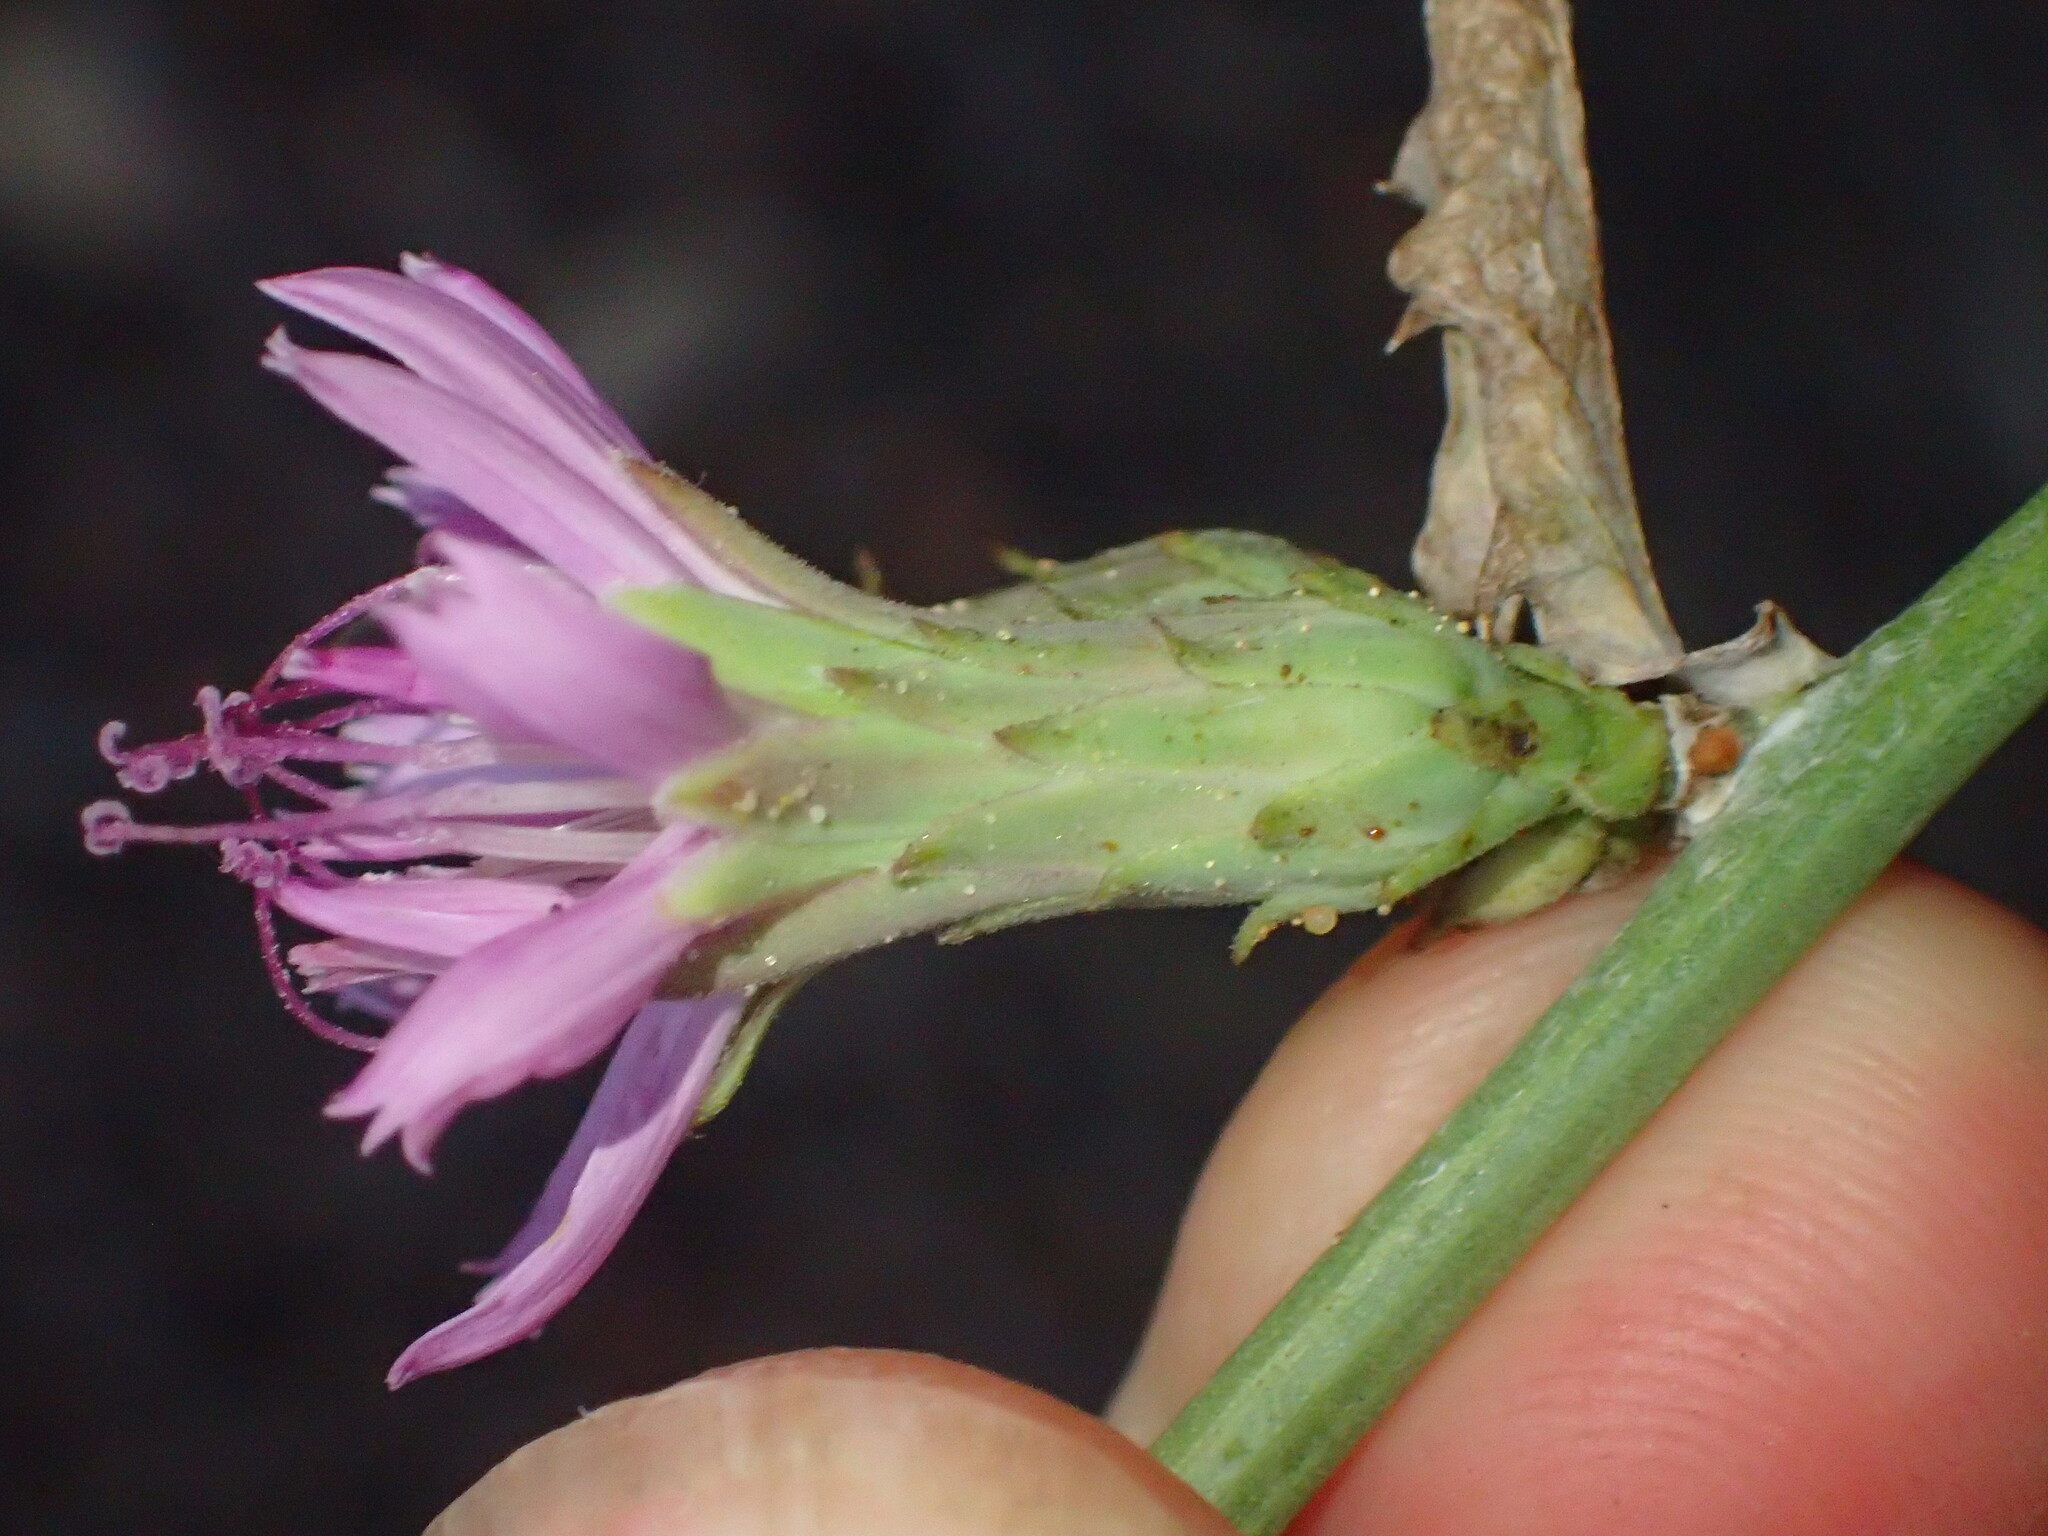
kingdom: Plantae
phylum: Tracheophyta
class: Magnoliopsida
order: Asterales
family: Asteraceae
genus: Stephanomeria
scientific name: Stephanomeria cichoriacea
